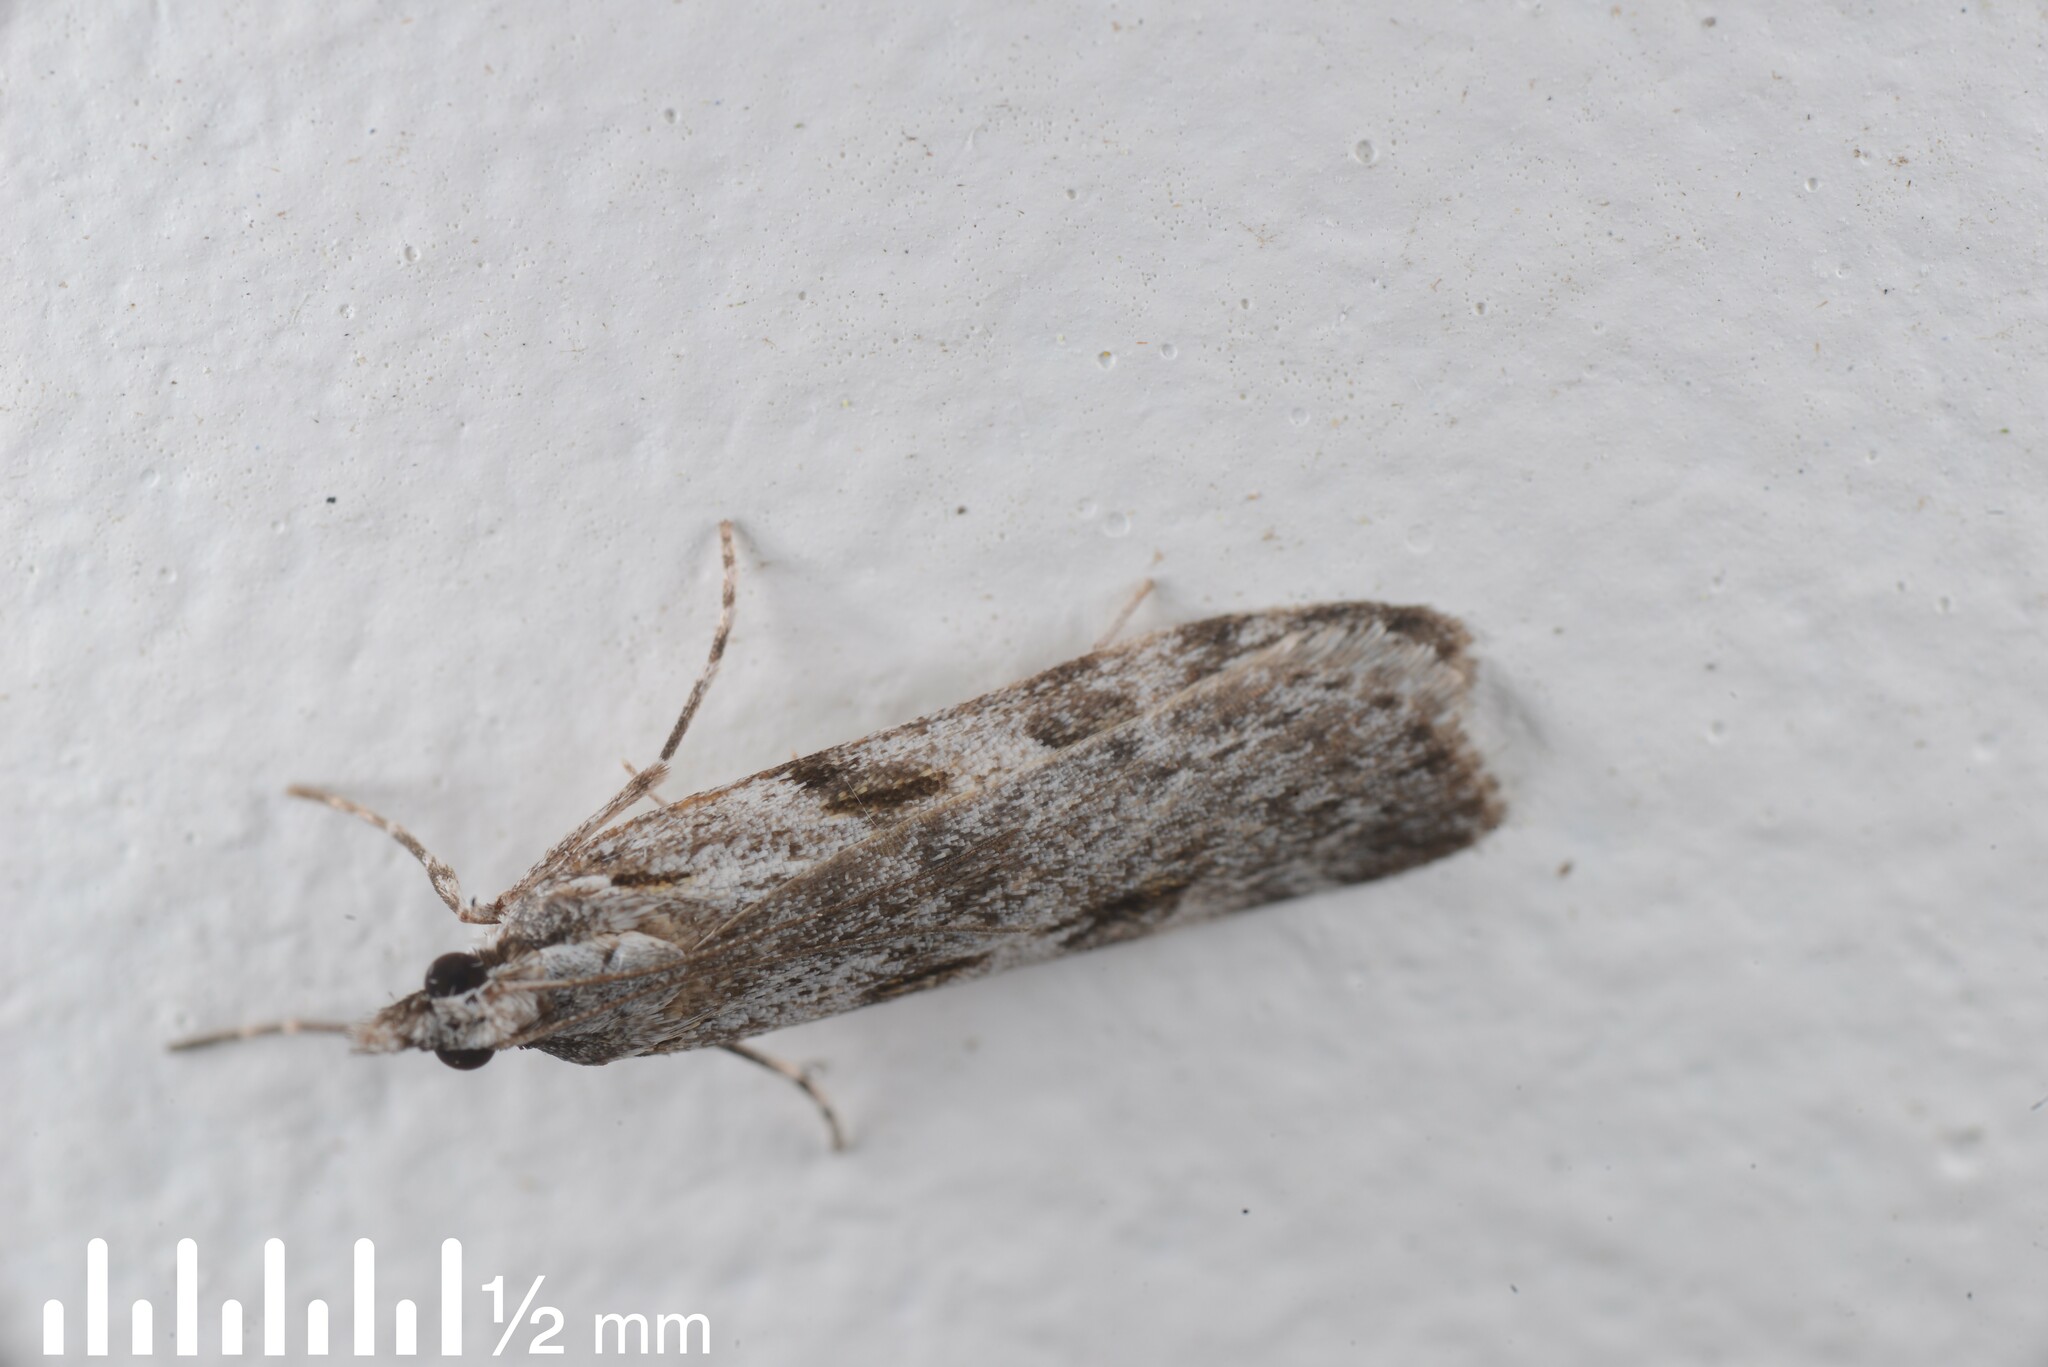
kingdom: Animalia
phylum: Arthropoda
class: Insecta
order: Lepidoptera
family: Crambidae
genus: Scoparia
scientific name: Scoparia halopis
